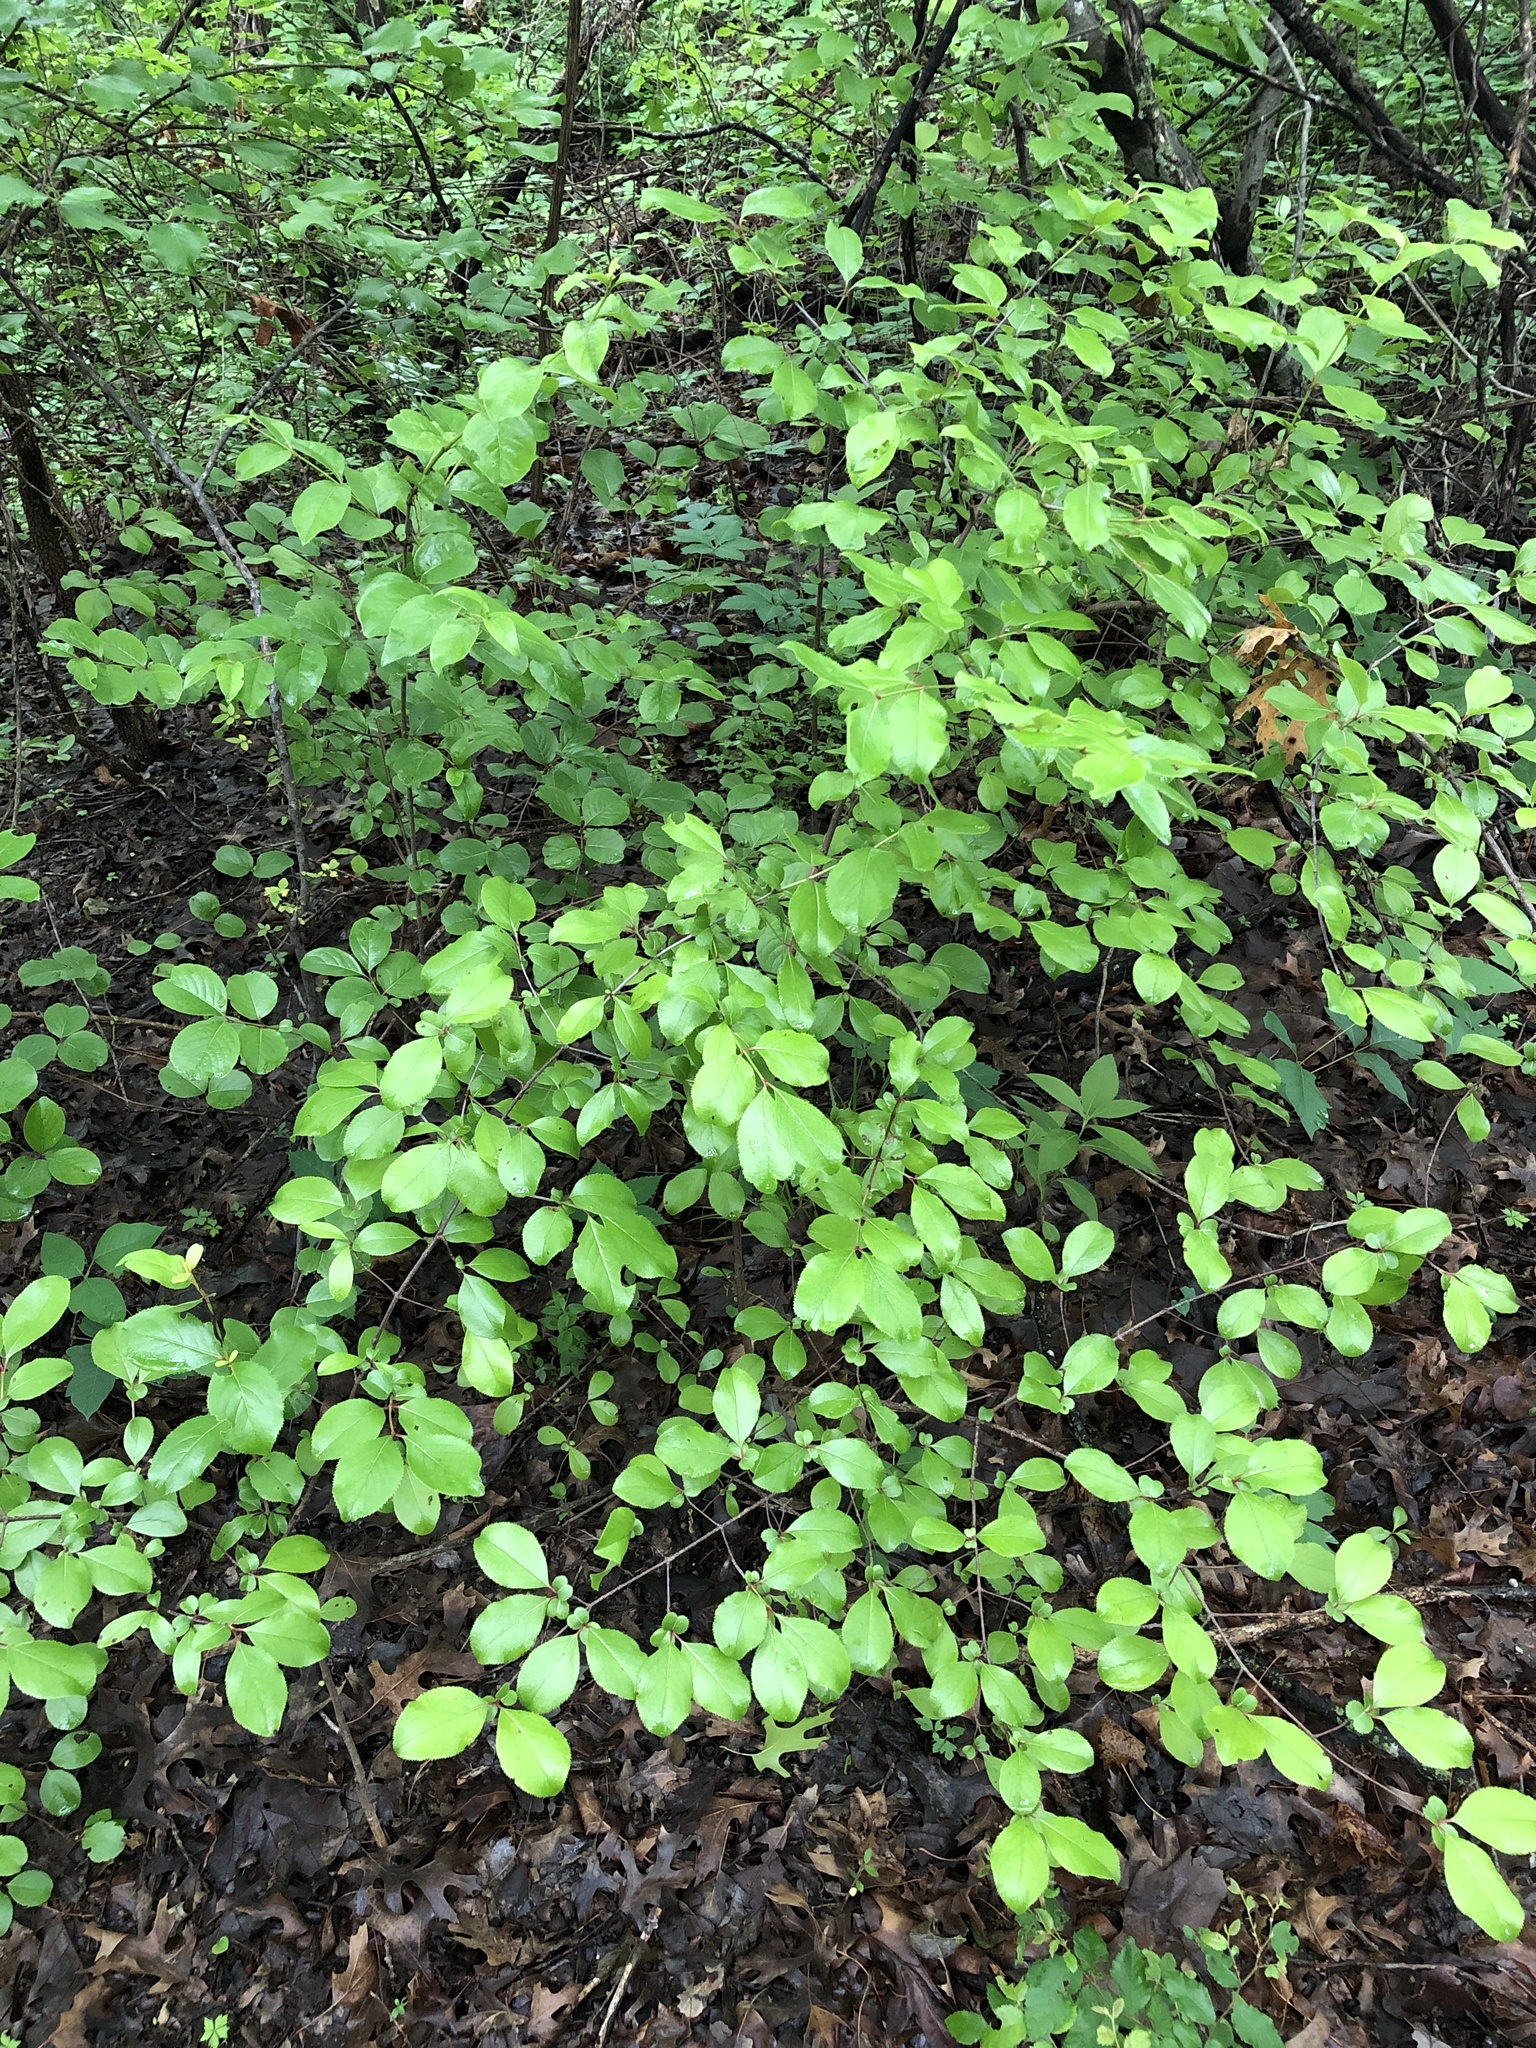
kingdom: Plantae
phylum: Tracheophyta
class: Magnoliopsida
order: Dipsacales
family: Viburnaceae
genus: Viburnum
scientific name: Viburnum rufidulum
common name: Blue haw
